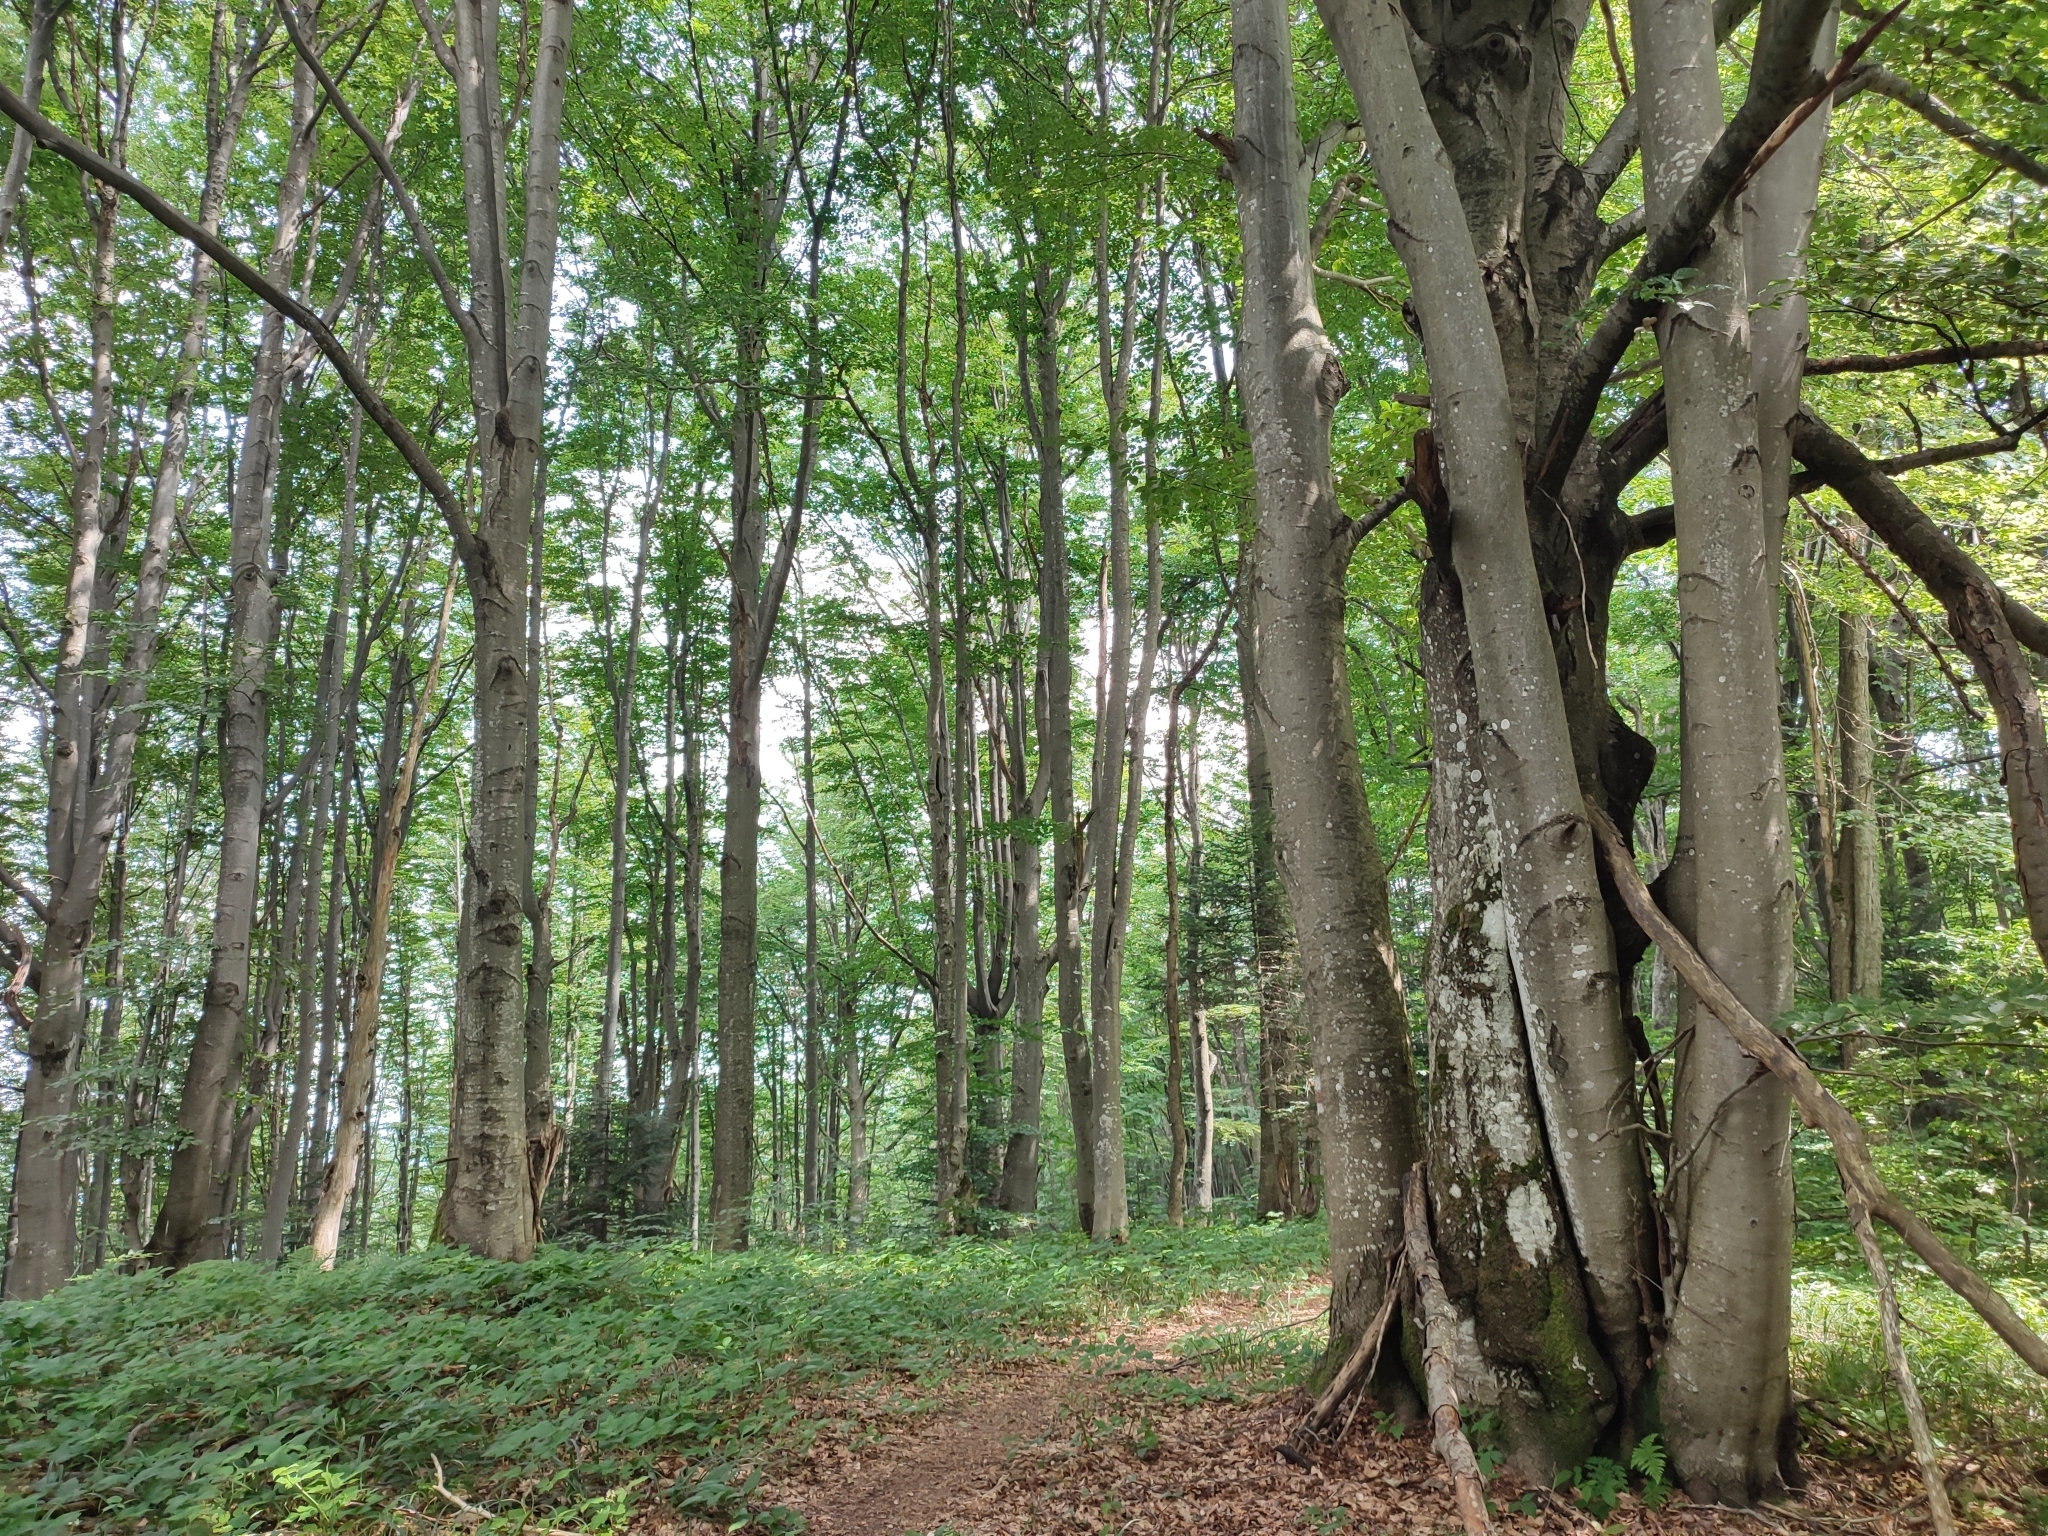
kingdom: Plantae
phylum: Tracheophyta
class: Magnoliopsida
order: Fagales
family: Fagaceae
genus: Fagus
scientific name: Fagus sylvatica
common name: Beech
